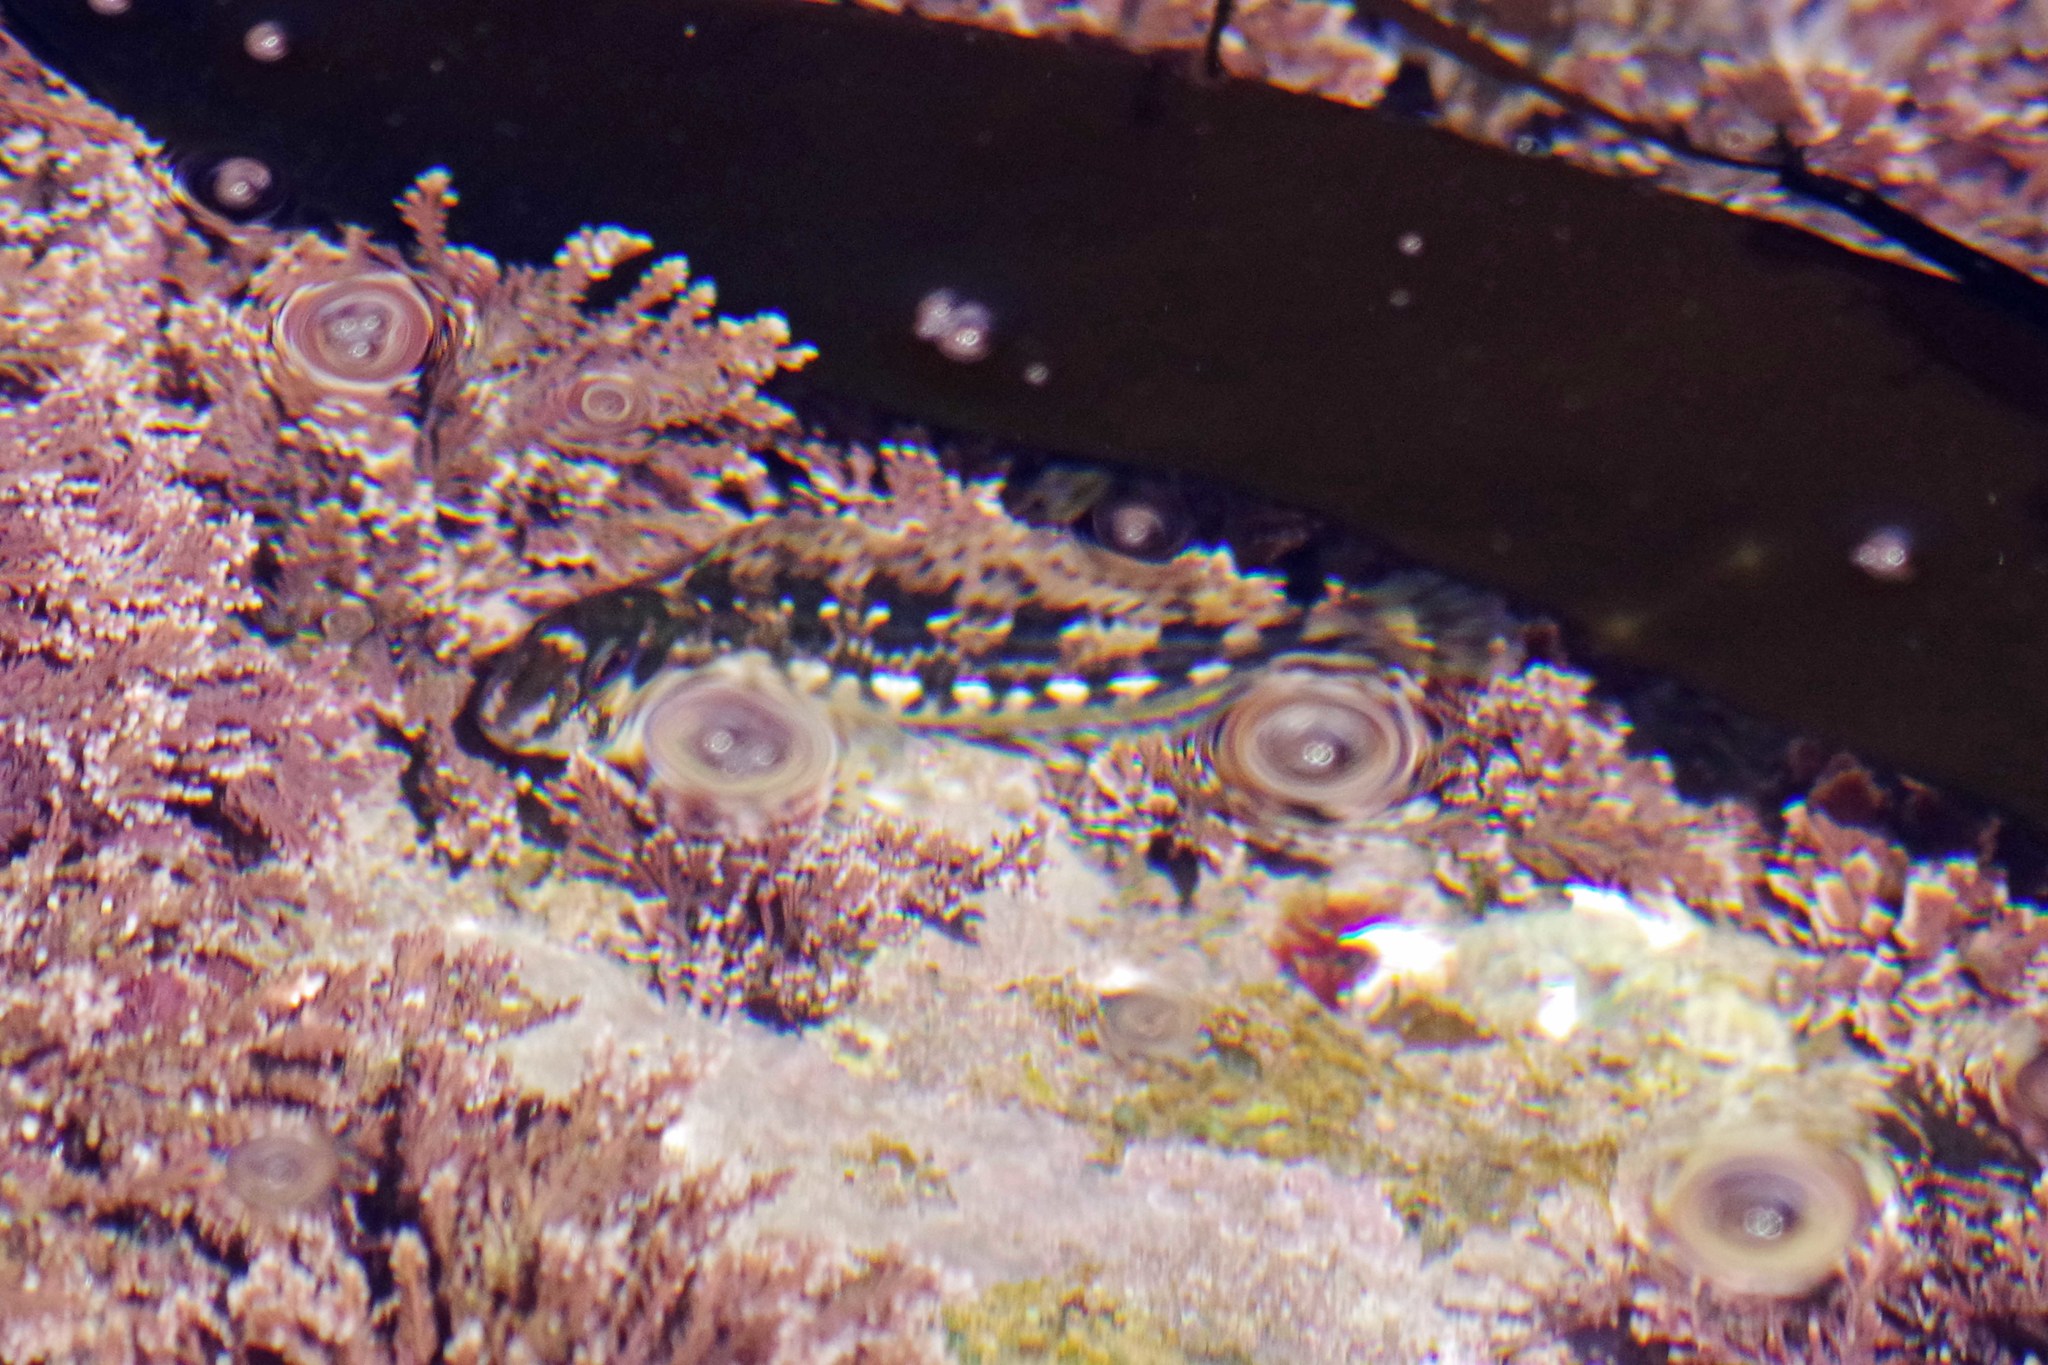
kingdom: Animalia
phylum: Chordata
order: Perciformes
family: Blenniidae
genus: Lipophrys
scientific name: Lipophrys pholis
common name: Shanny
